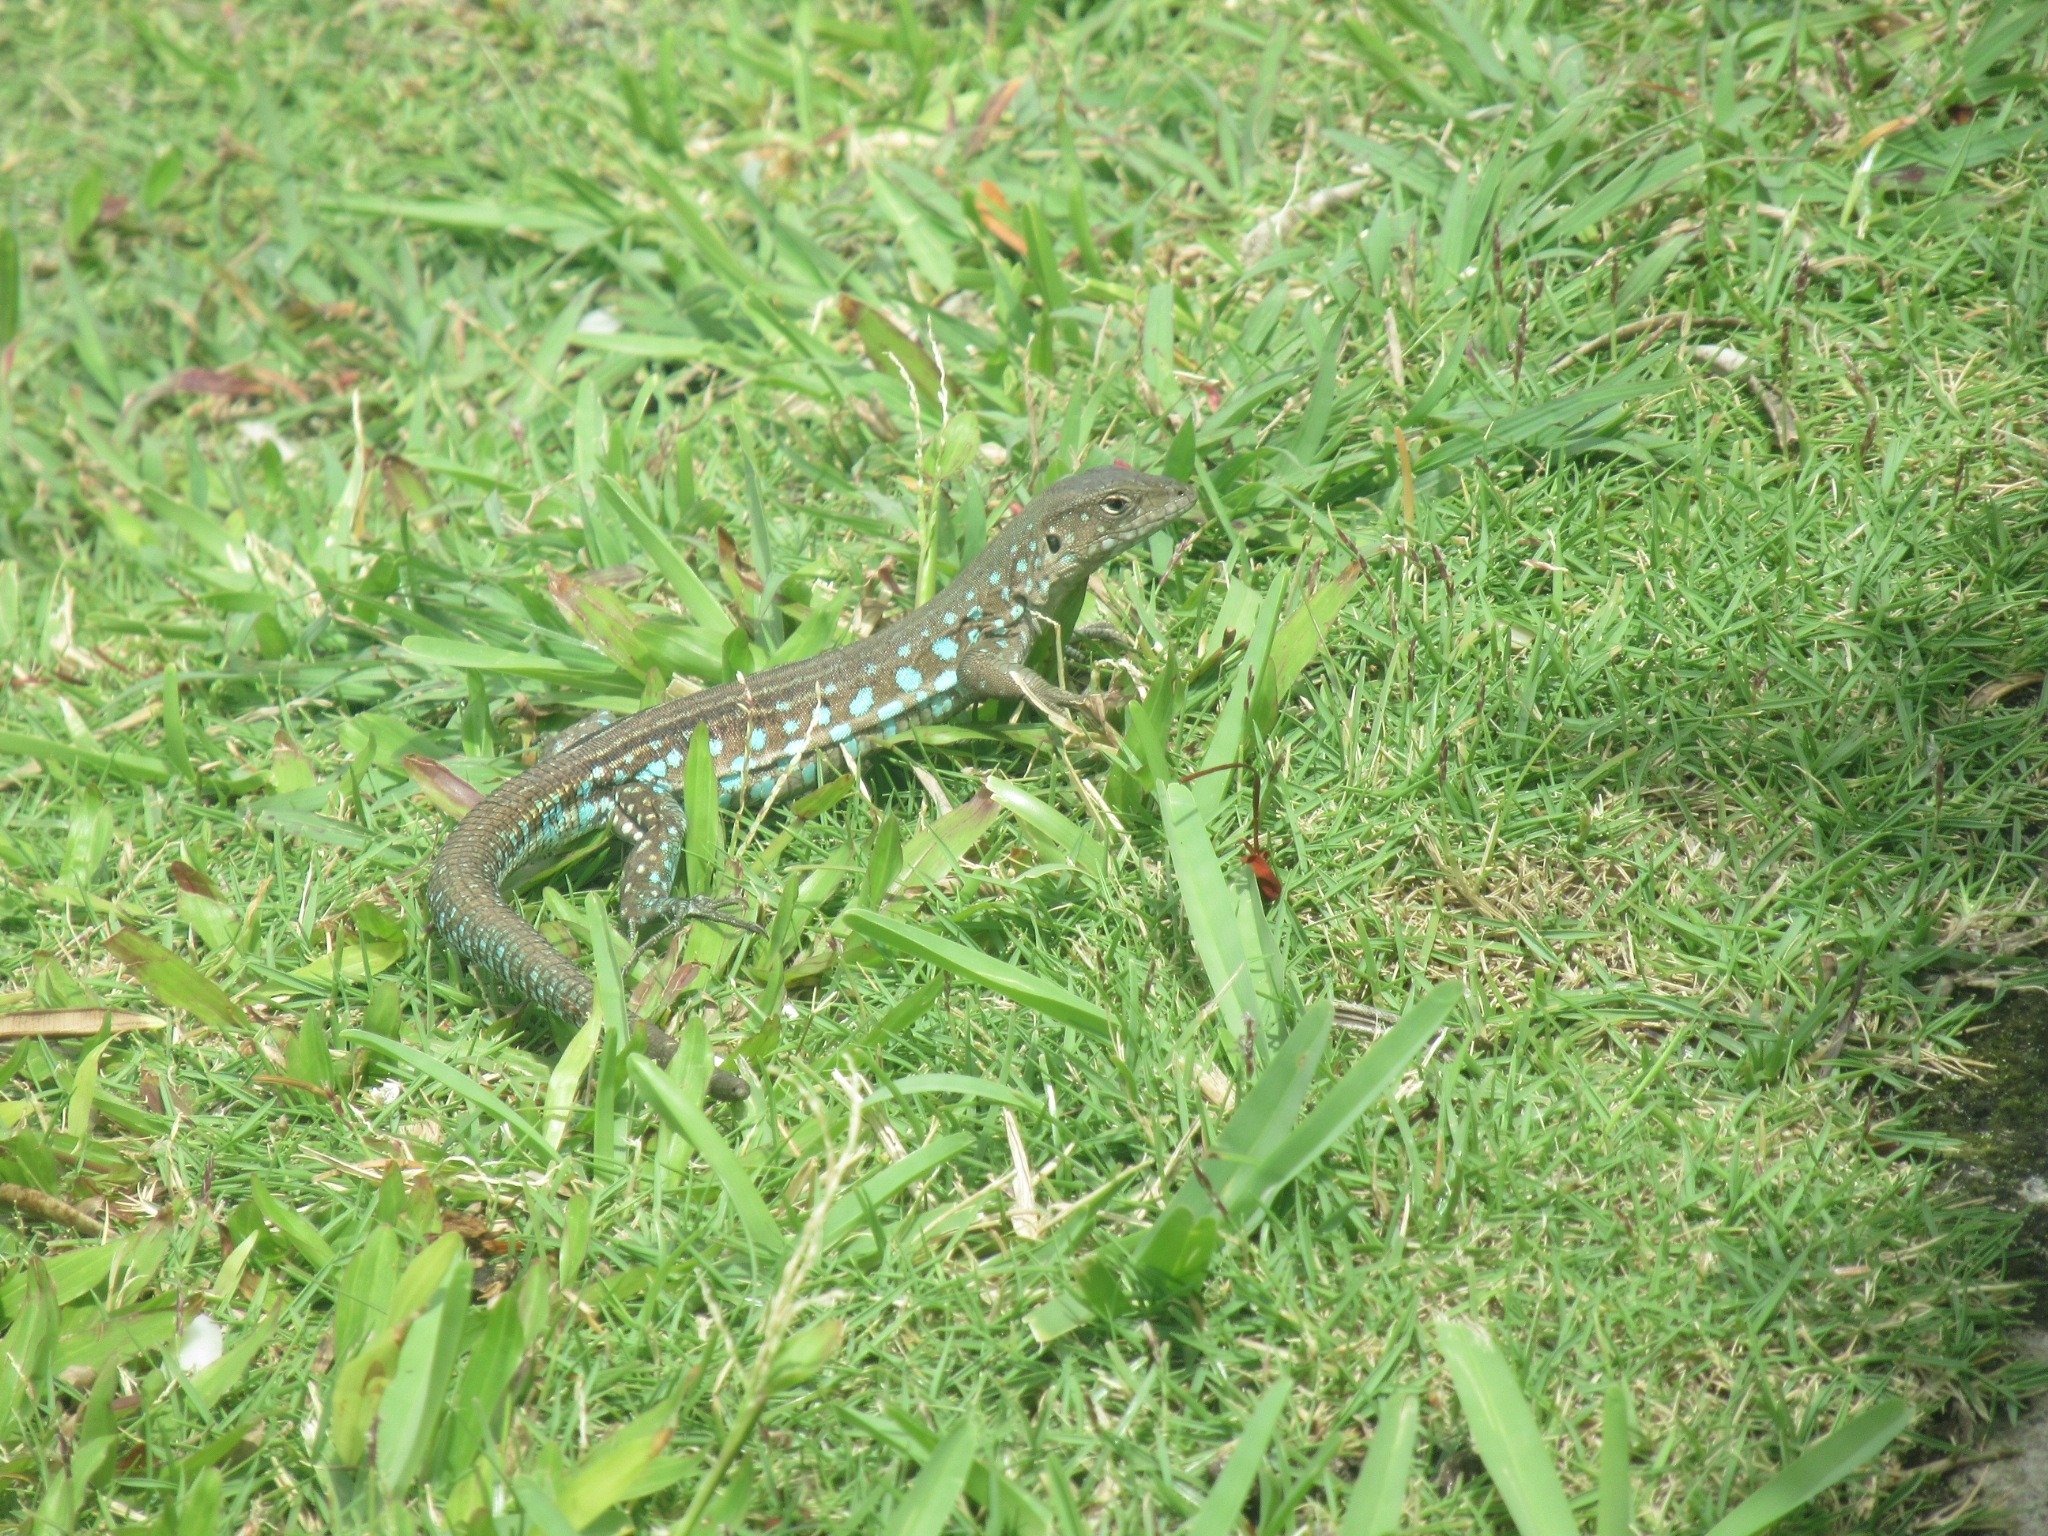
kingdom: Animalia
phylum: Chordata
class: Squamata
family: Teiidae
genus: Cnemidophorus
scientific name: Cnemidophorus arubensis
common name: Aruba whiptail
